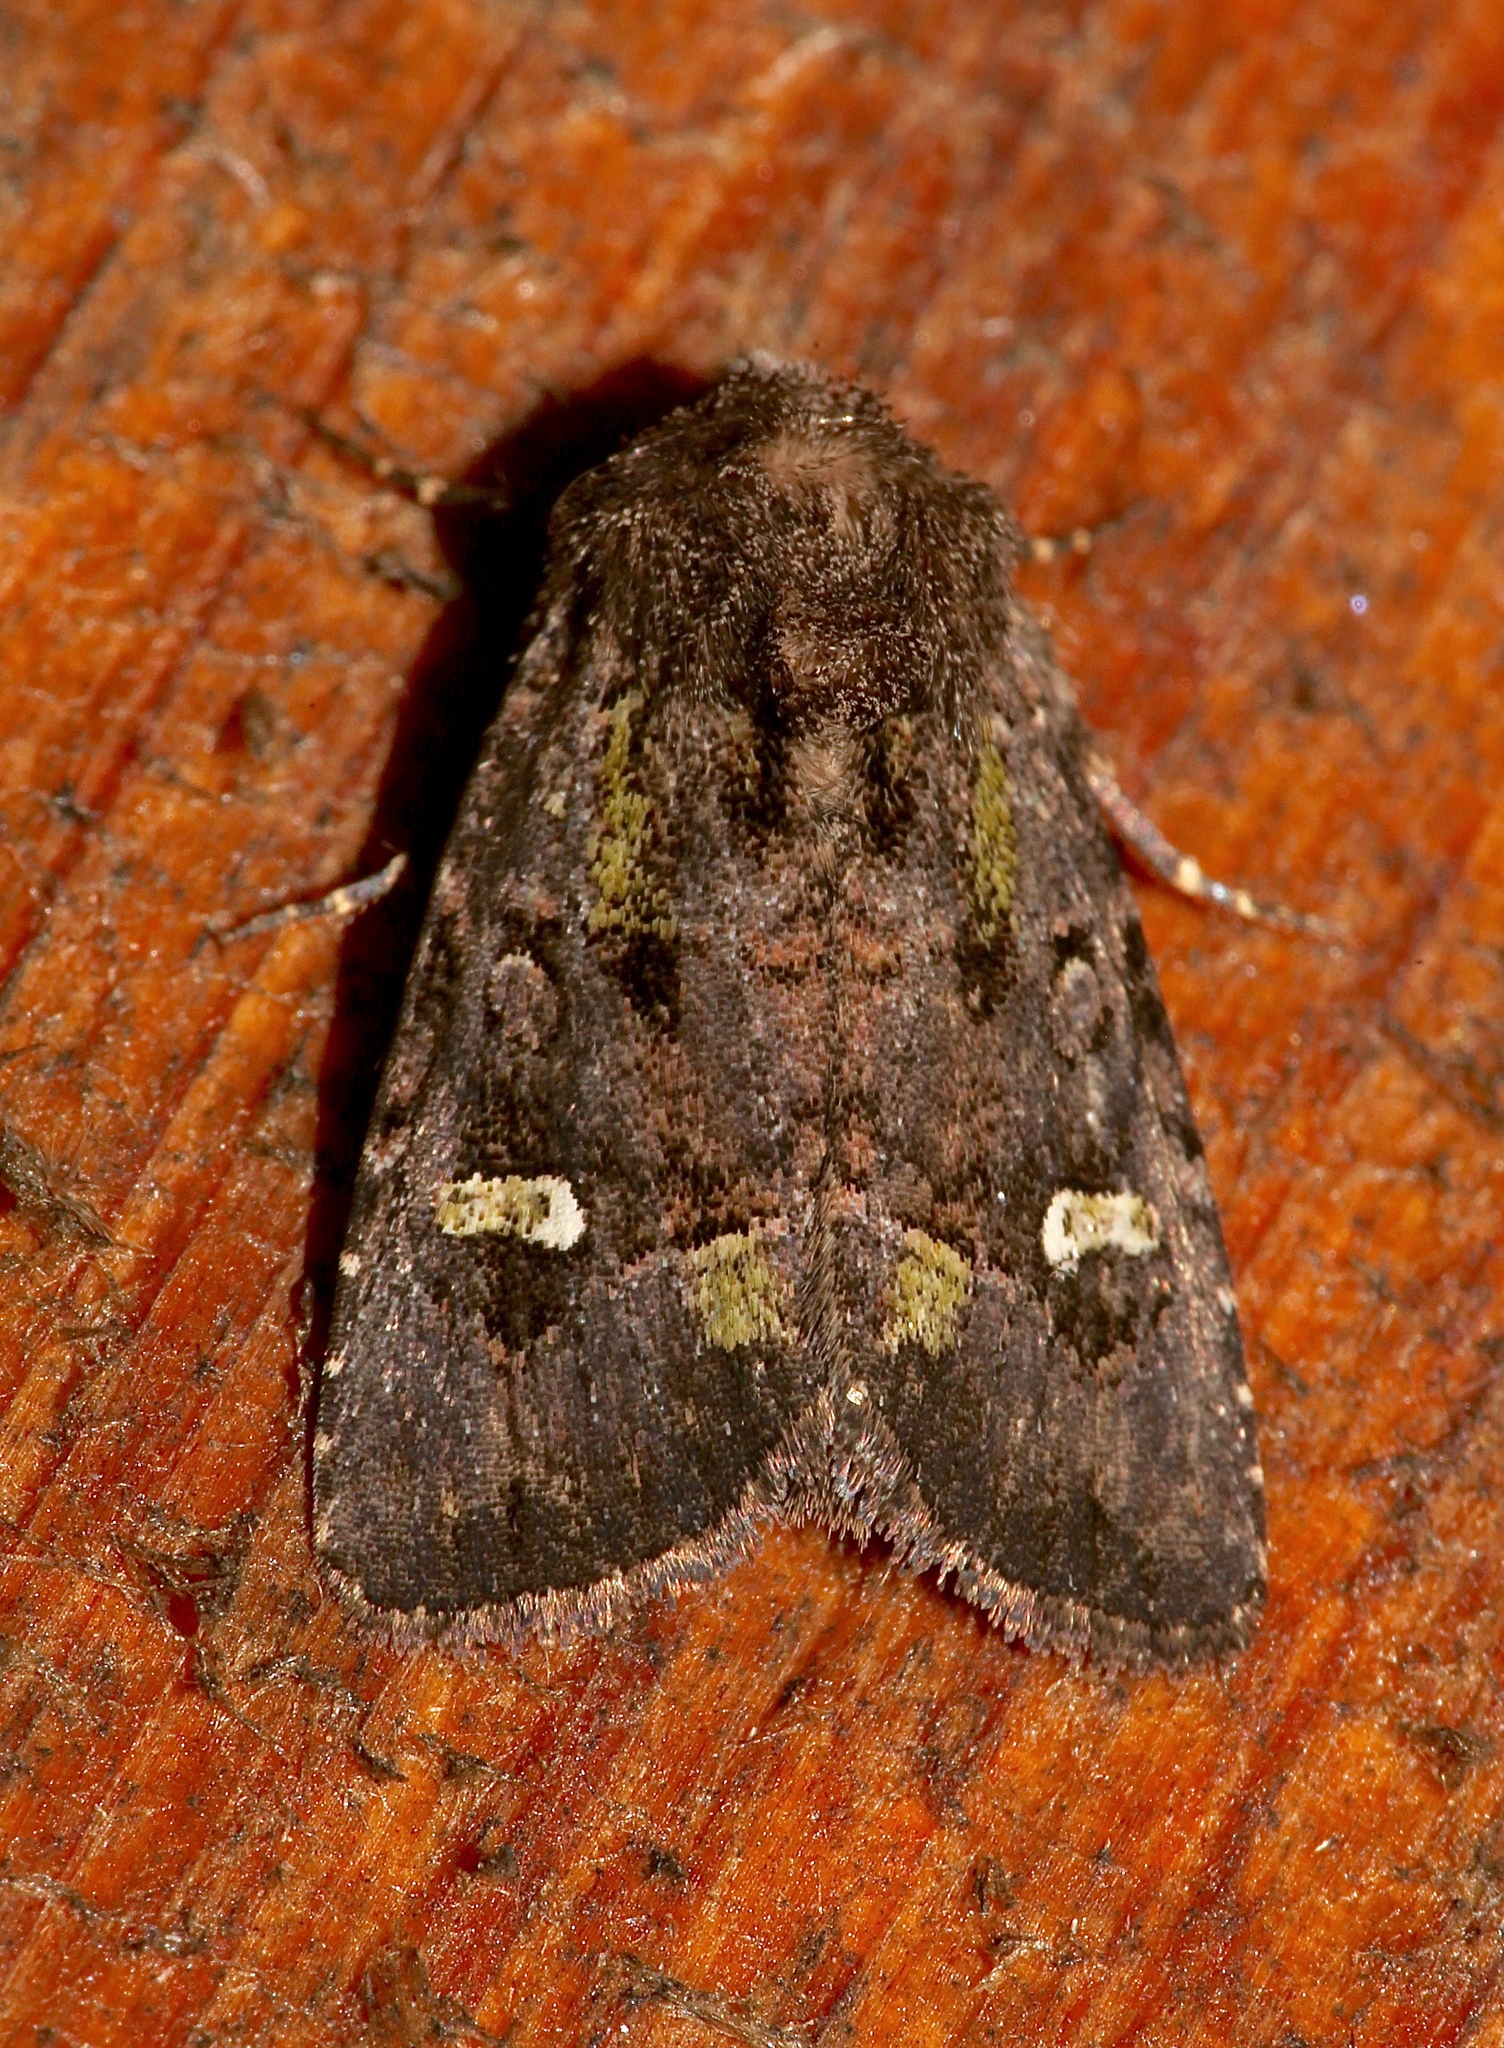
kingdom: Animalia
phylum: Arthropoda
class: Insecta
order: Lepidoptera
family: Noctuidae
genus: Lacinipolia
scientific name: Lacinipolia renigera
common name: Kidney-spotted minor
